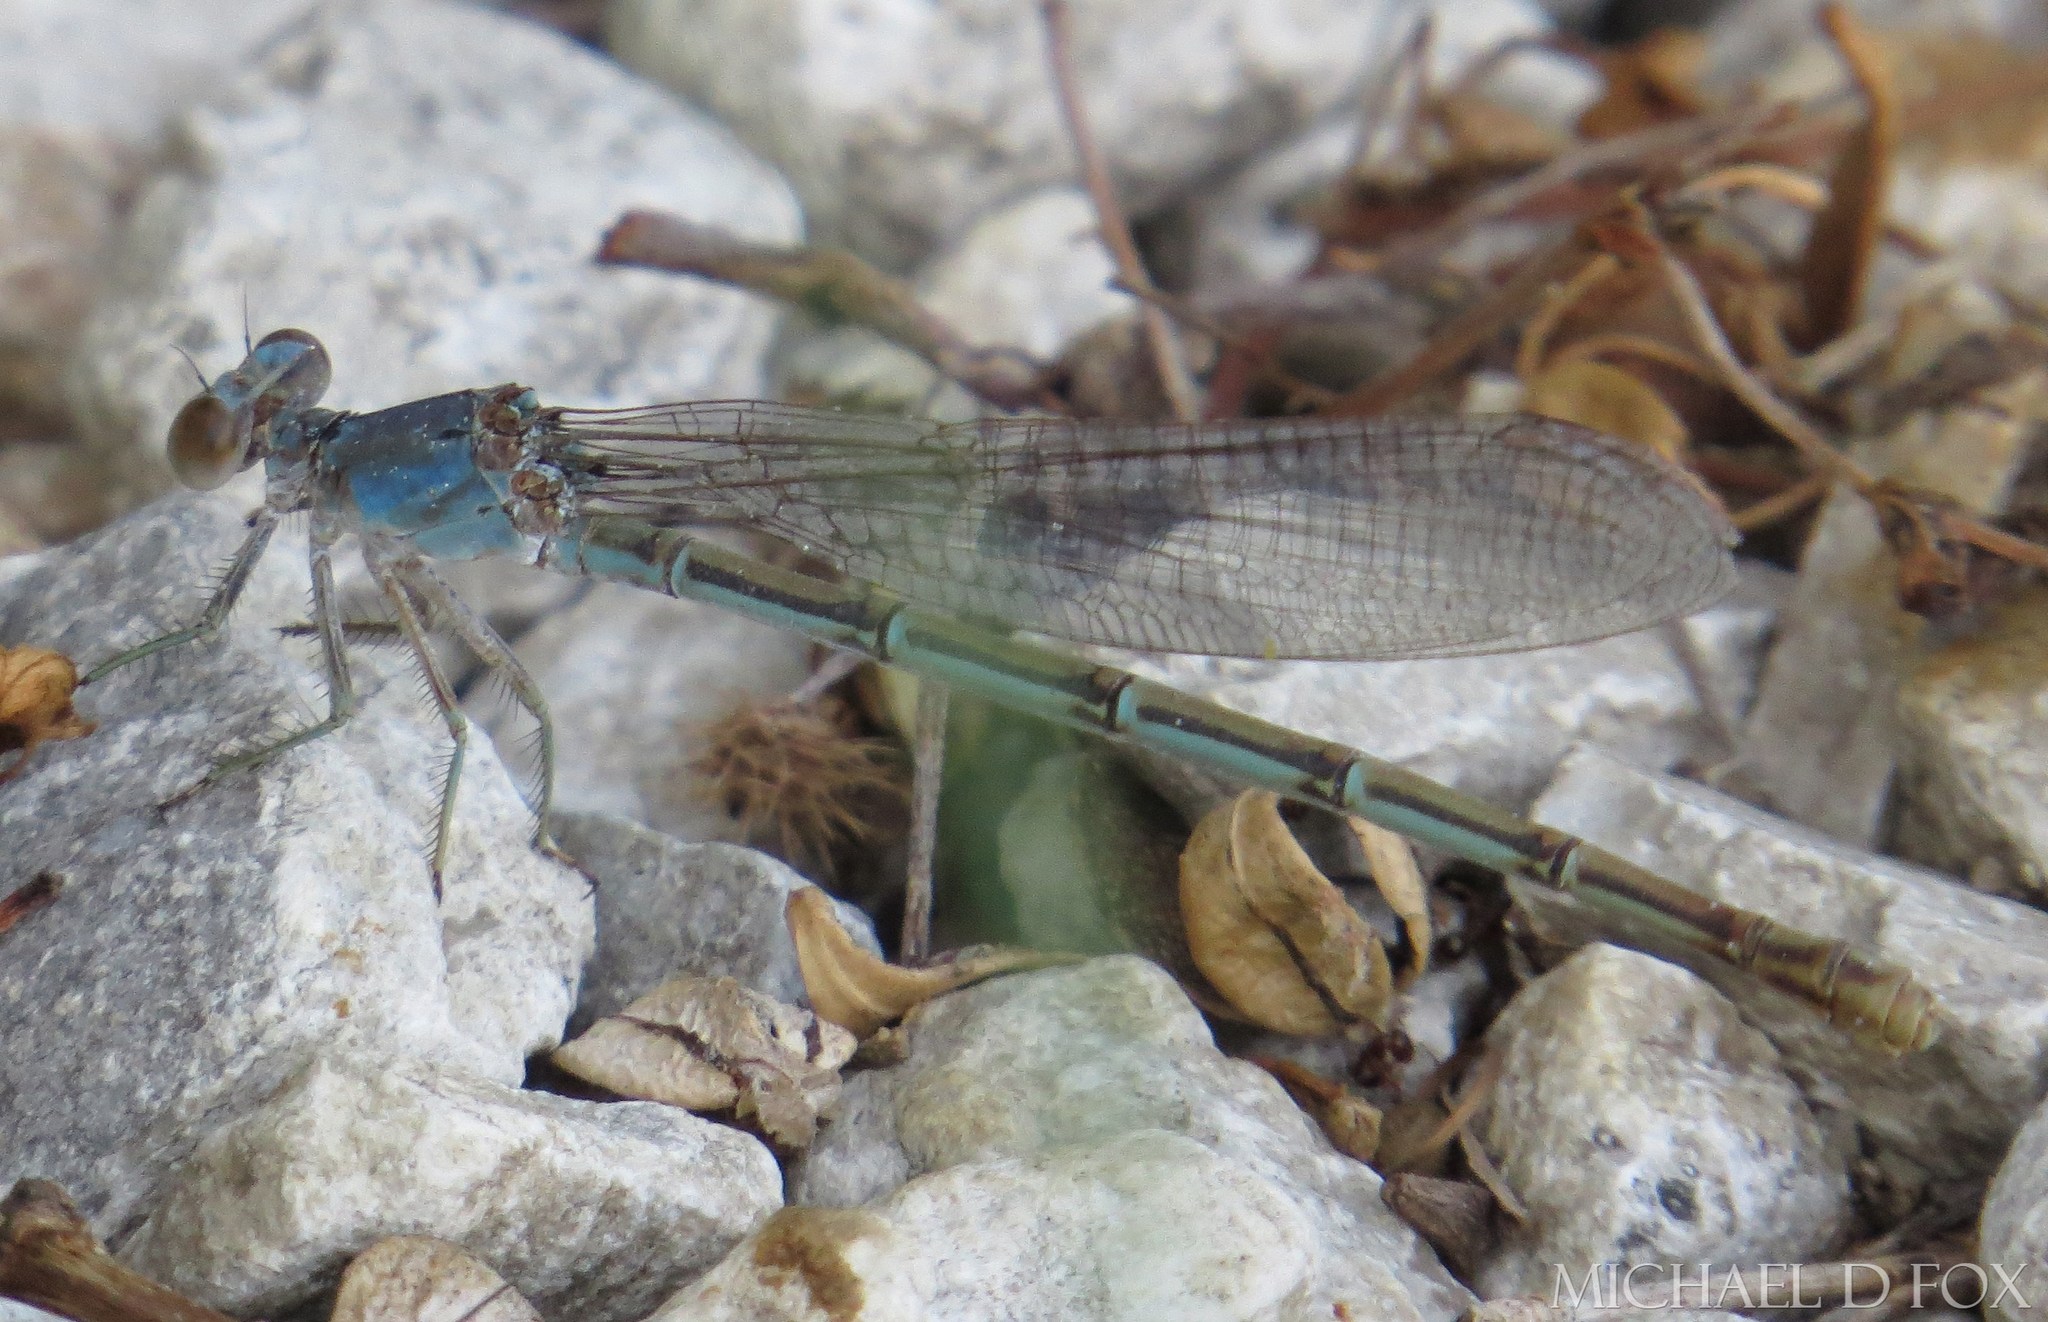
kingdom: Animalia
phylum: Arthropoda
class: Insecta
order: Odonata
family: Coenagrionidae
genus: Argia
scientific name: Argia moesta
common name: Powdered dancer
